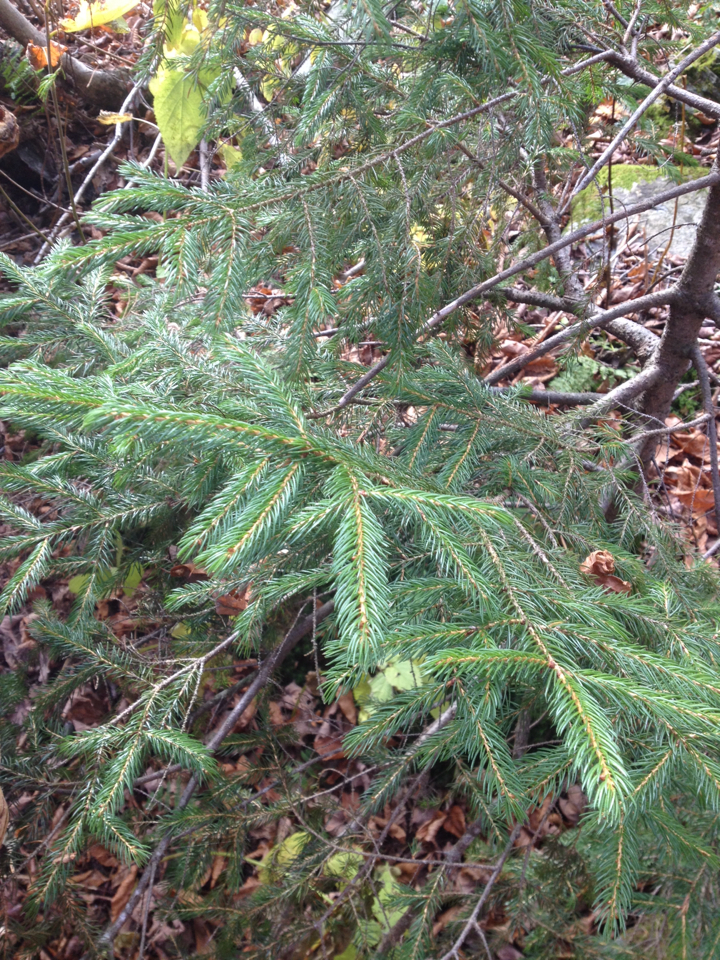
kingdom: Plantae
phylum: Tracheophyta
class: Pinopsida
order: Pinales
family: Pinaceae
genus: Picea
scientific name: Picea rubens
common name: Red spruce
